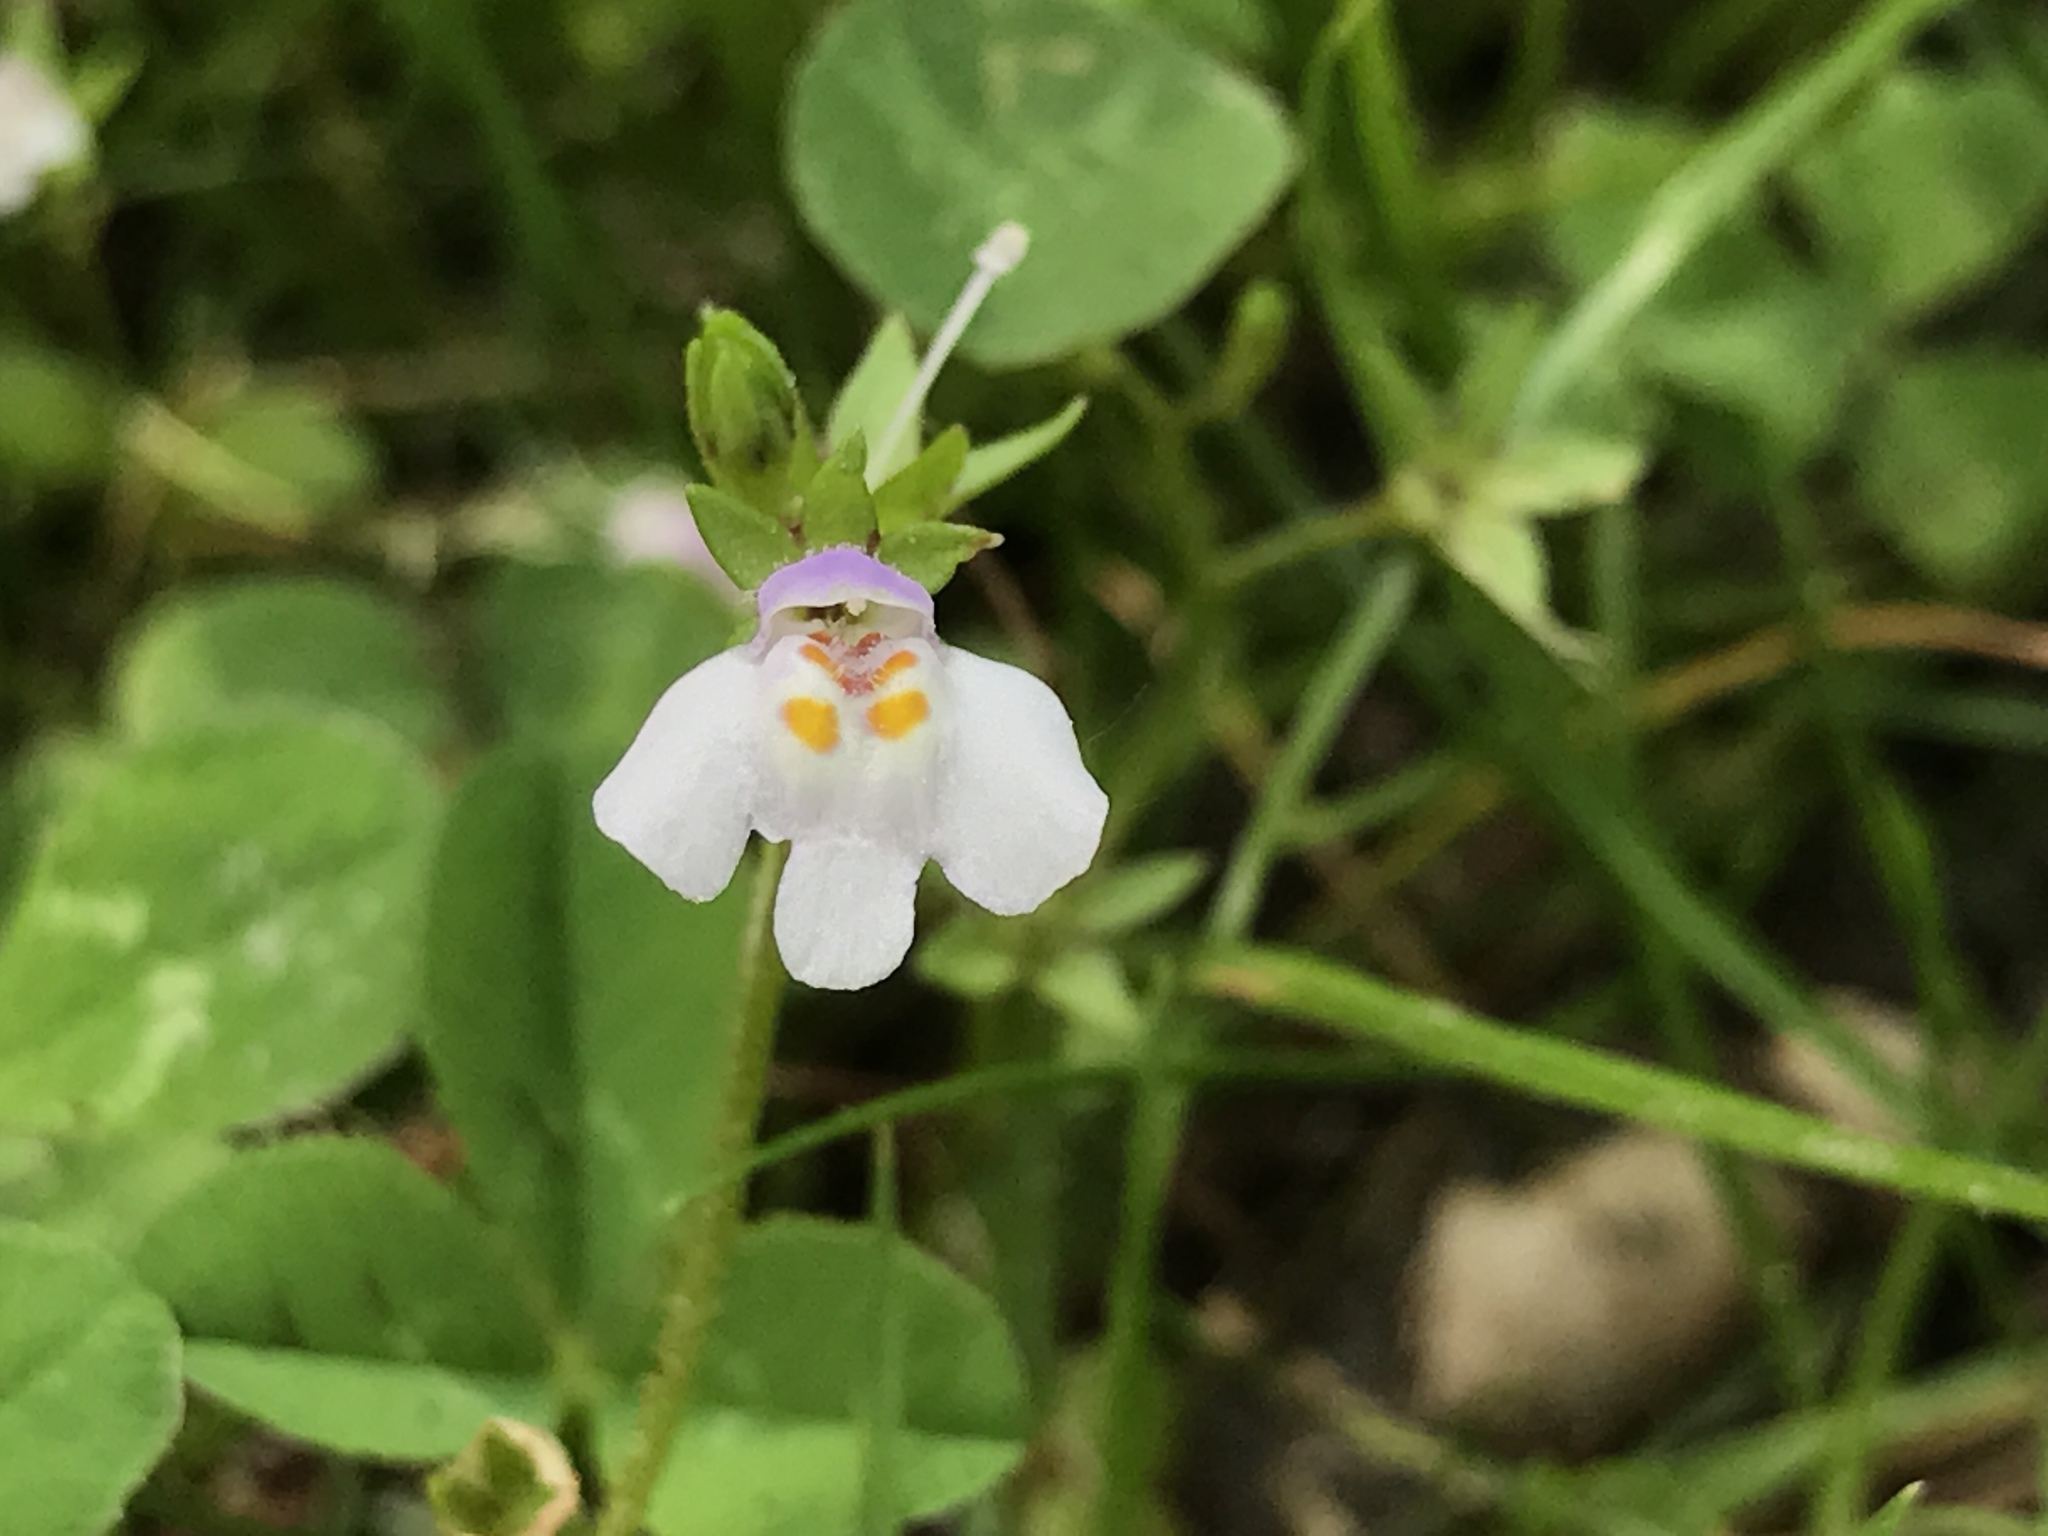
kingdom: Plantae
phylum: Tracheophyta
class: Magnoliopsida
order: Lamiales
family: Mazaceae
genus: Mazus
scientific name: Mazus pumilus
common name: Japanese mazus
